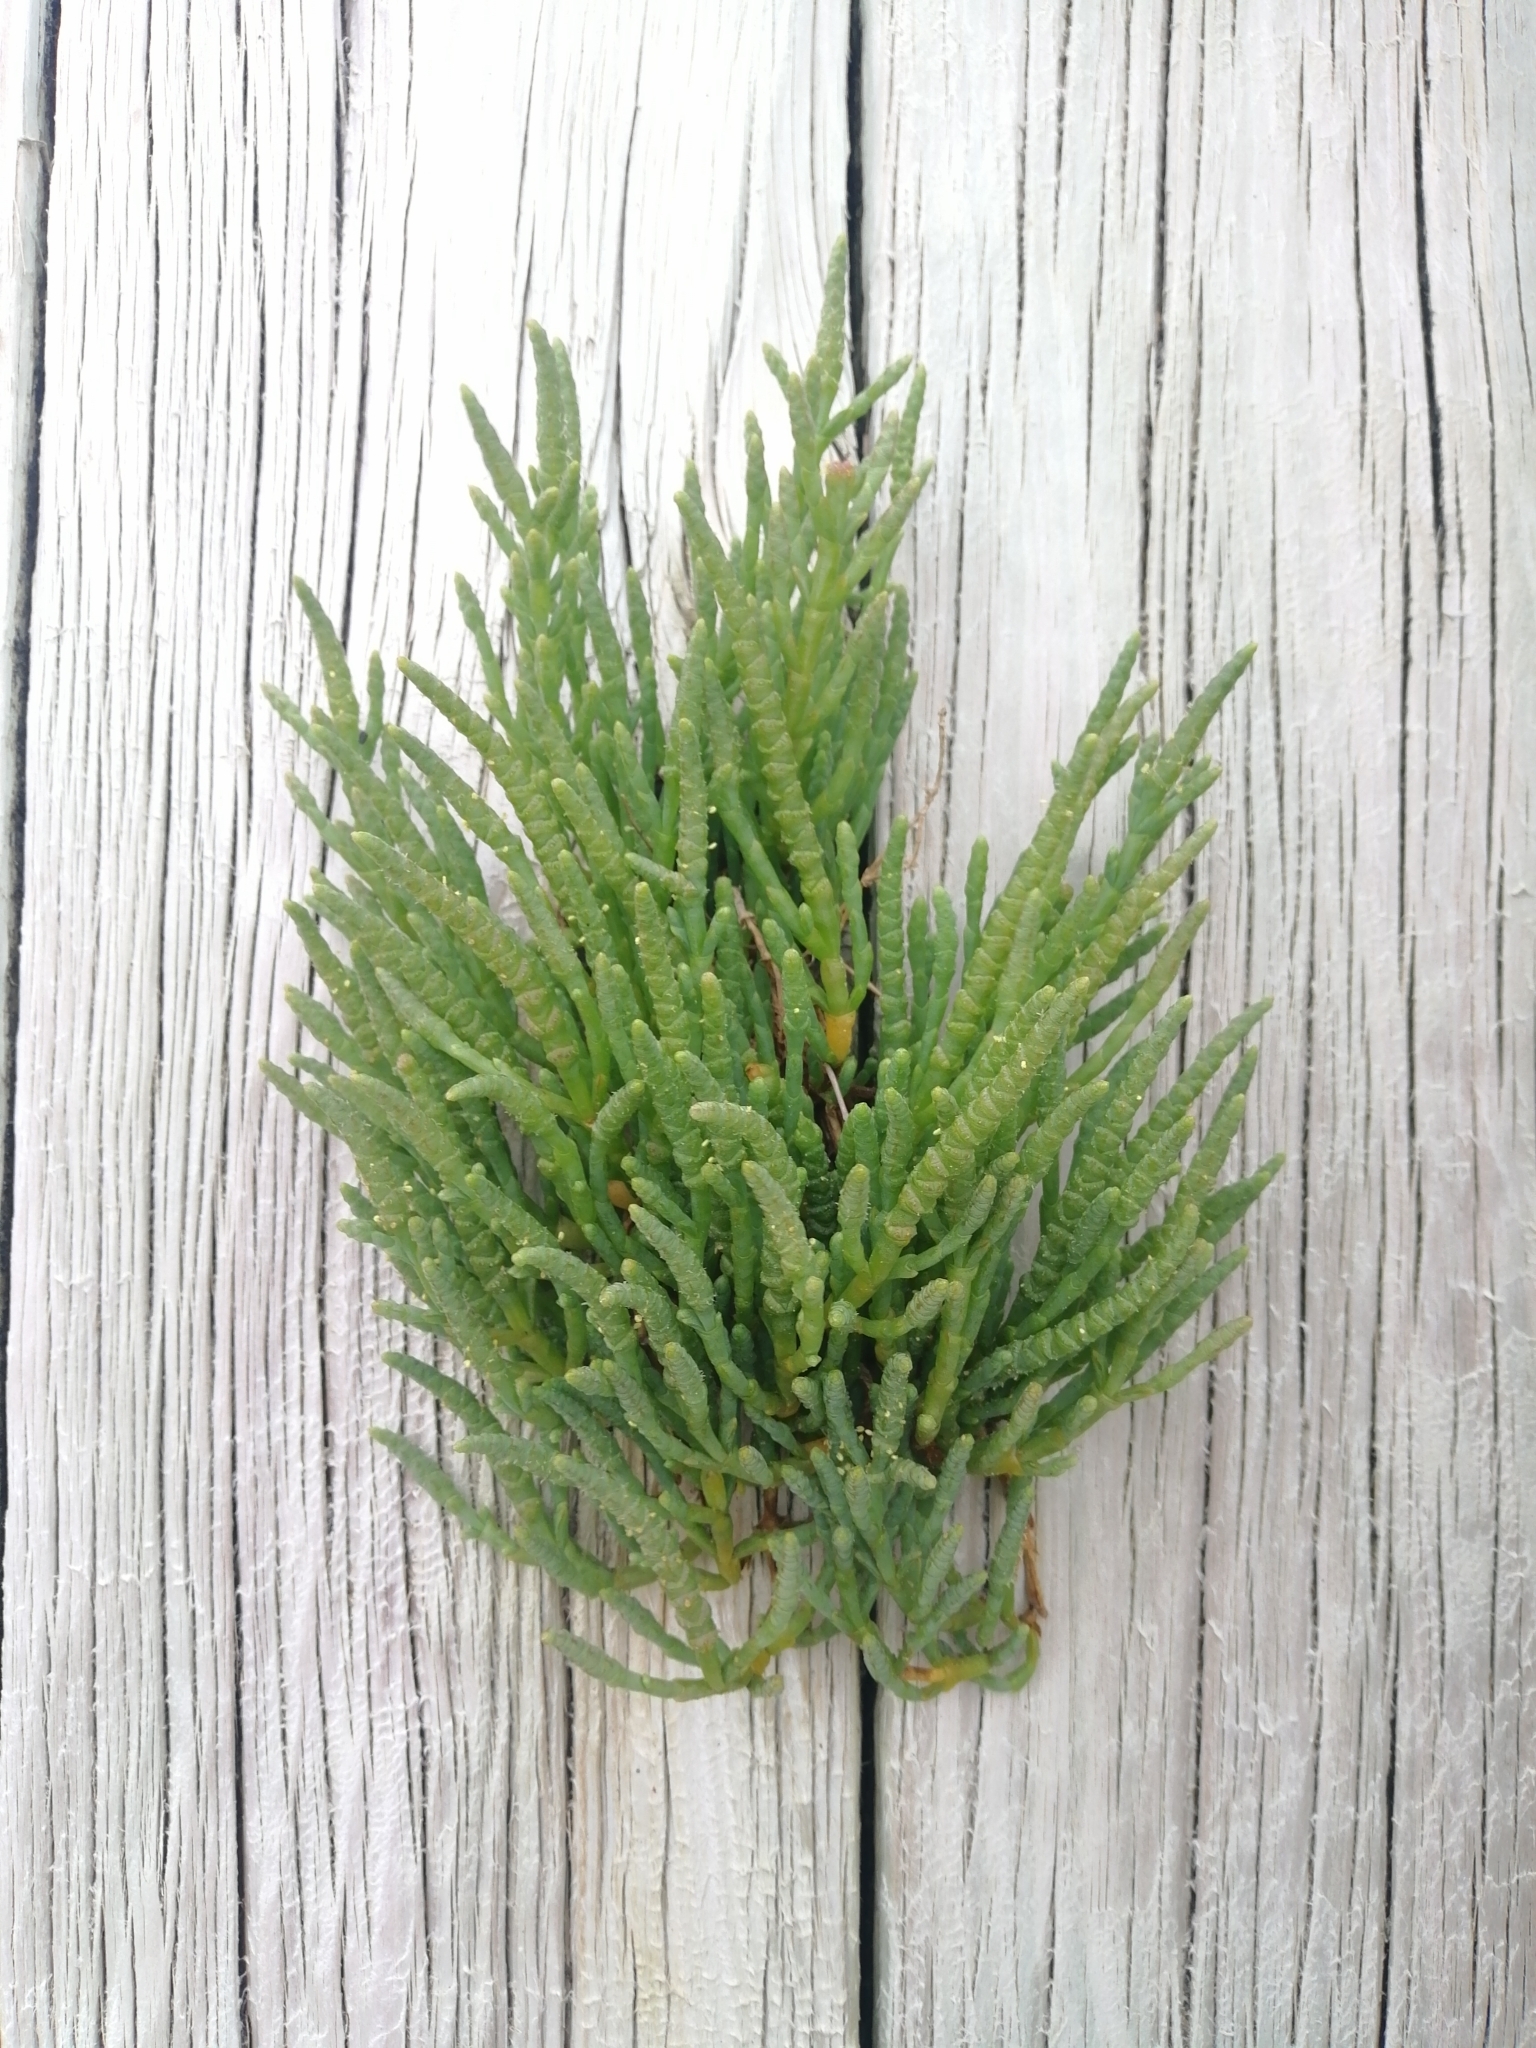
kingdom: Plantae
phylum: Tracheophyta
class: Magnoliopsida
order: Caryophyllales
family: Amaranthaceae
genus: Salicornia
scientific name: Salicornia quinqueflora
